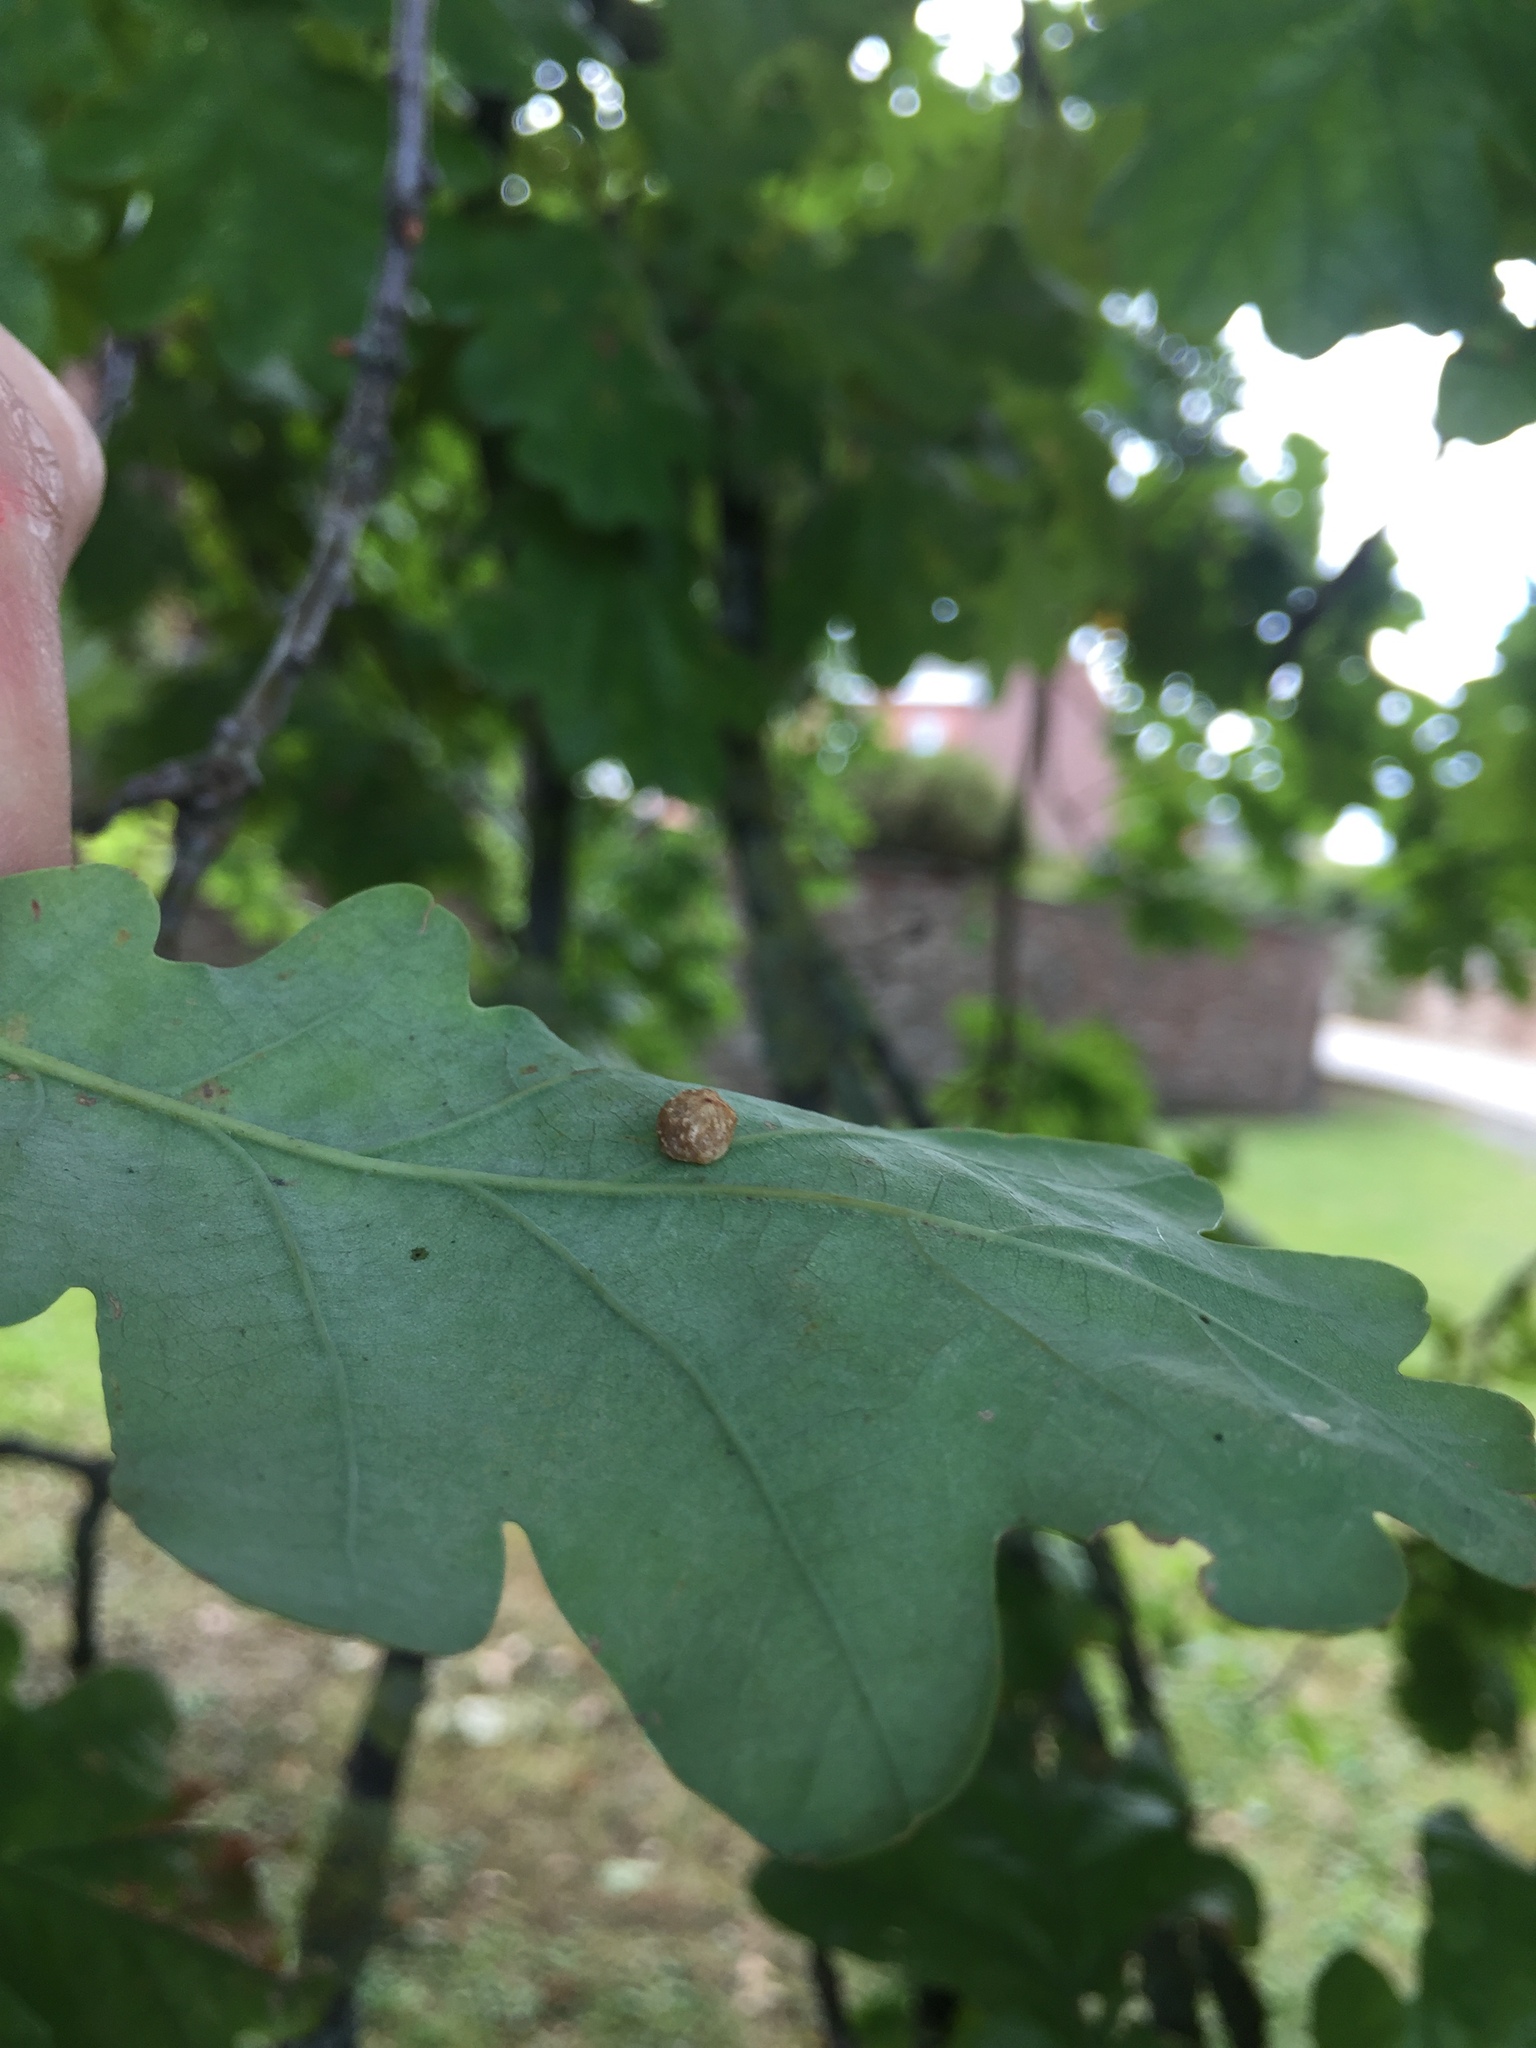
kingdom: Animalia
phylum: Arthropoda
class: Insecta
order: Hymenoptera
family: Cynipidae
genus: Cynips
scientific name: Cynips divisa
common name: Red currant gall
